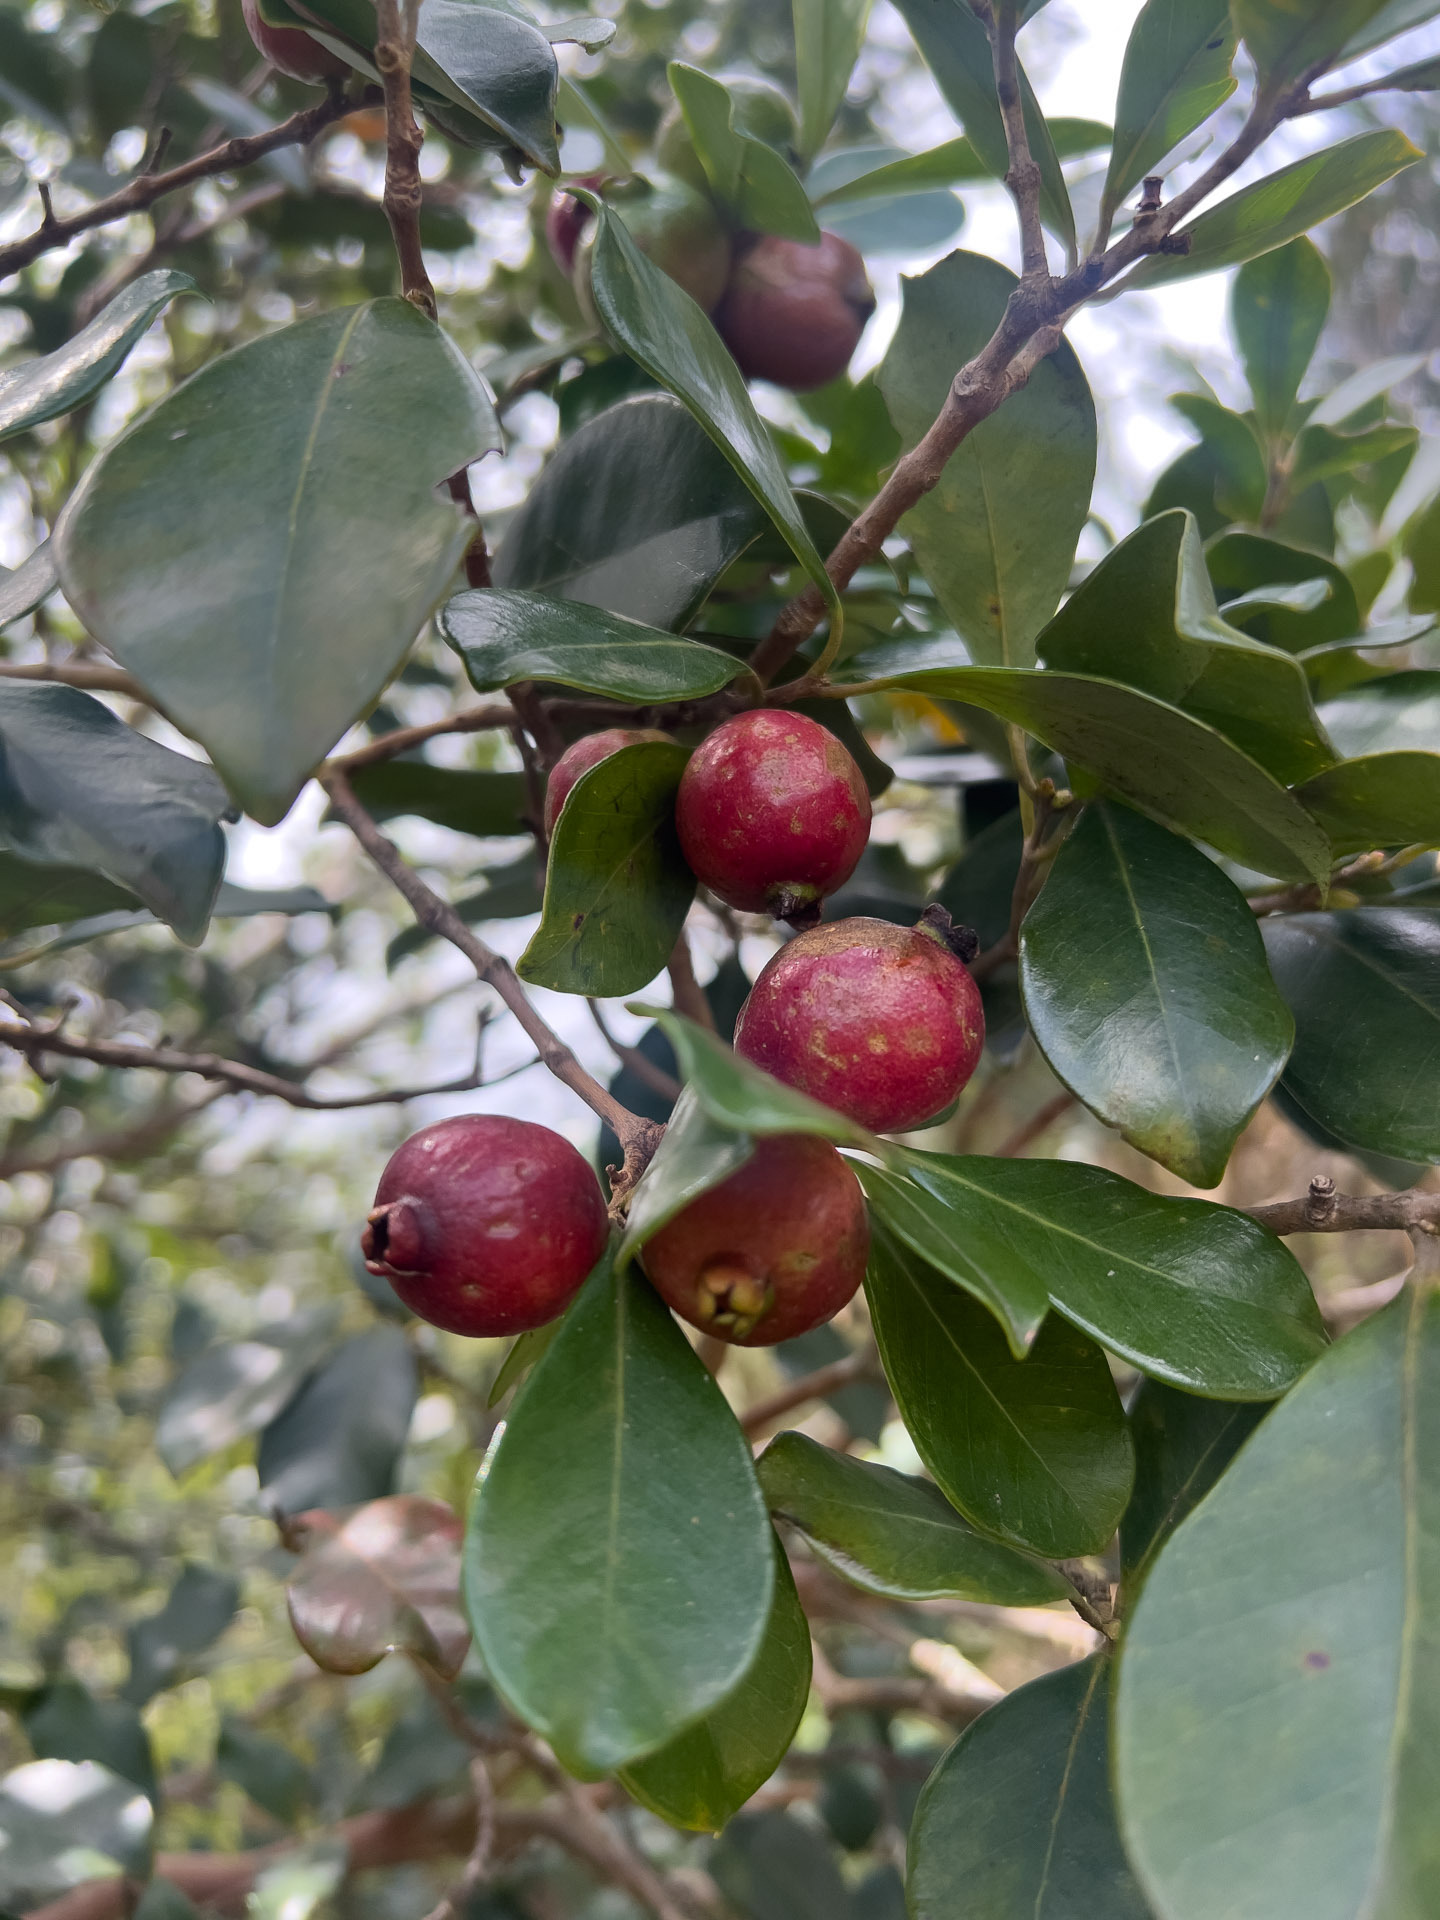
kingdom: Plantae
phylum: Tracheophyta
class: Magnoliopsida
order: Myrtales
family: Myrtaceae
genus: Psidium
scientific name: Psidium cattleianum
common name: Strawberry guava
